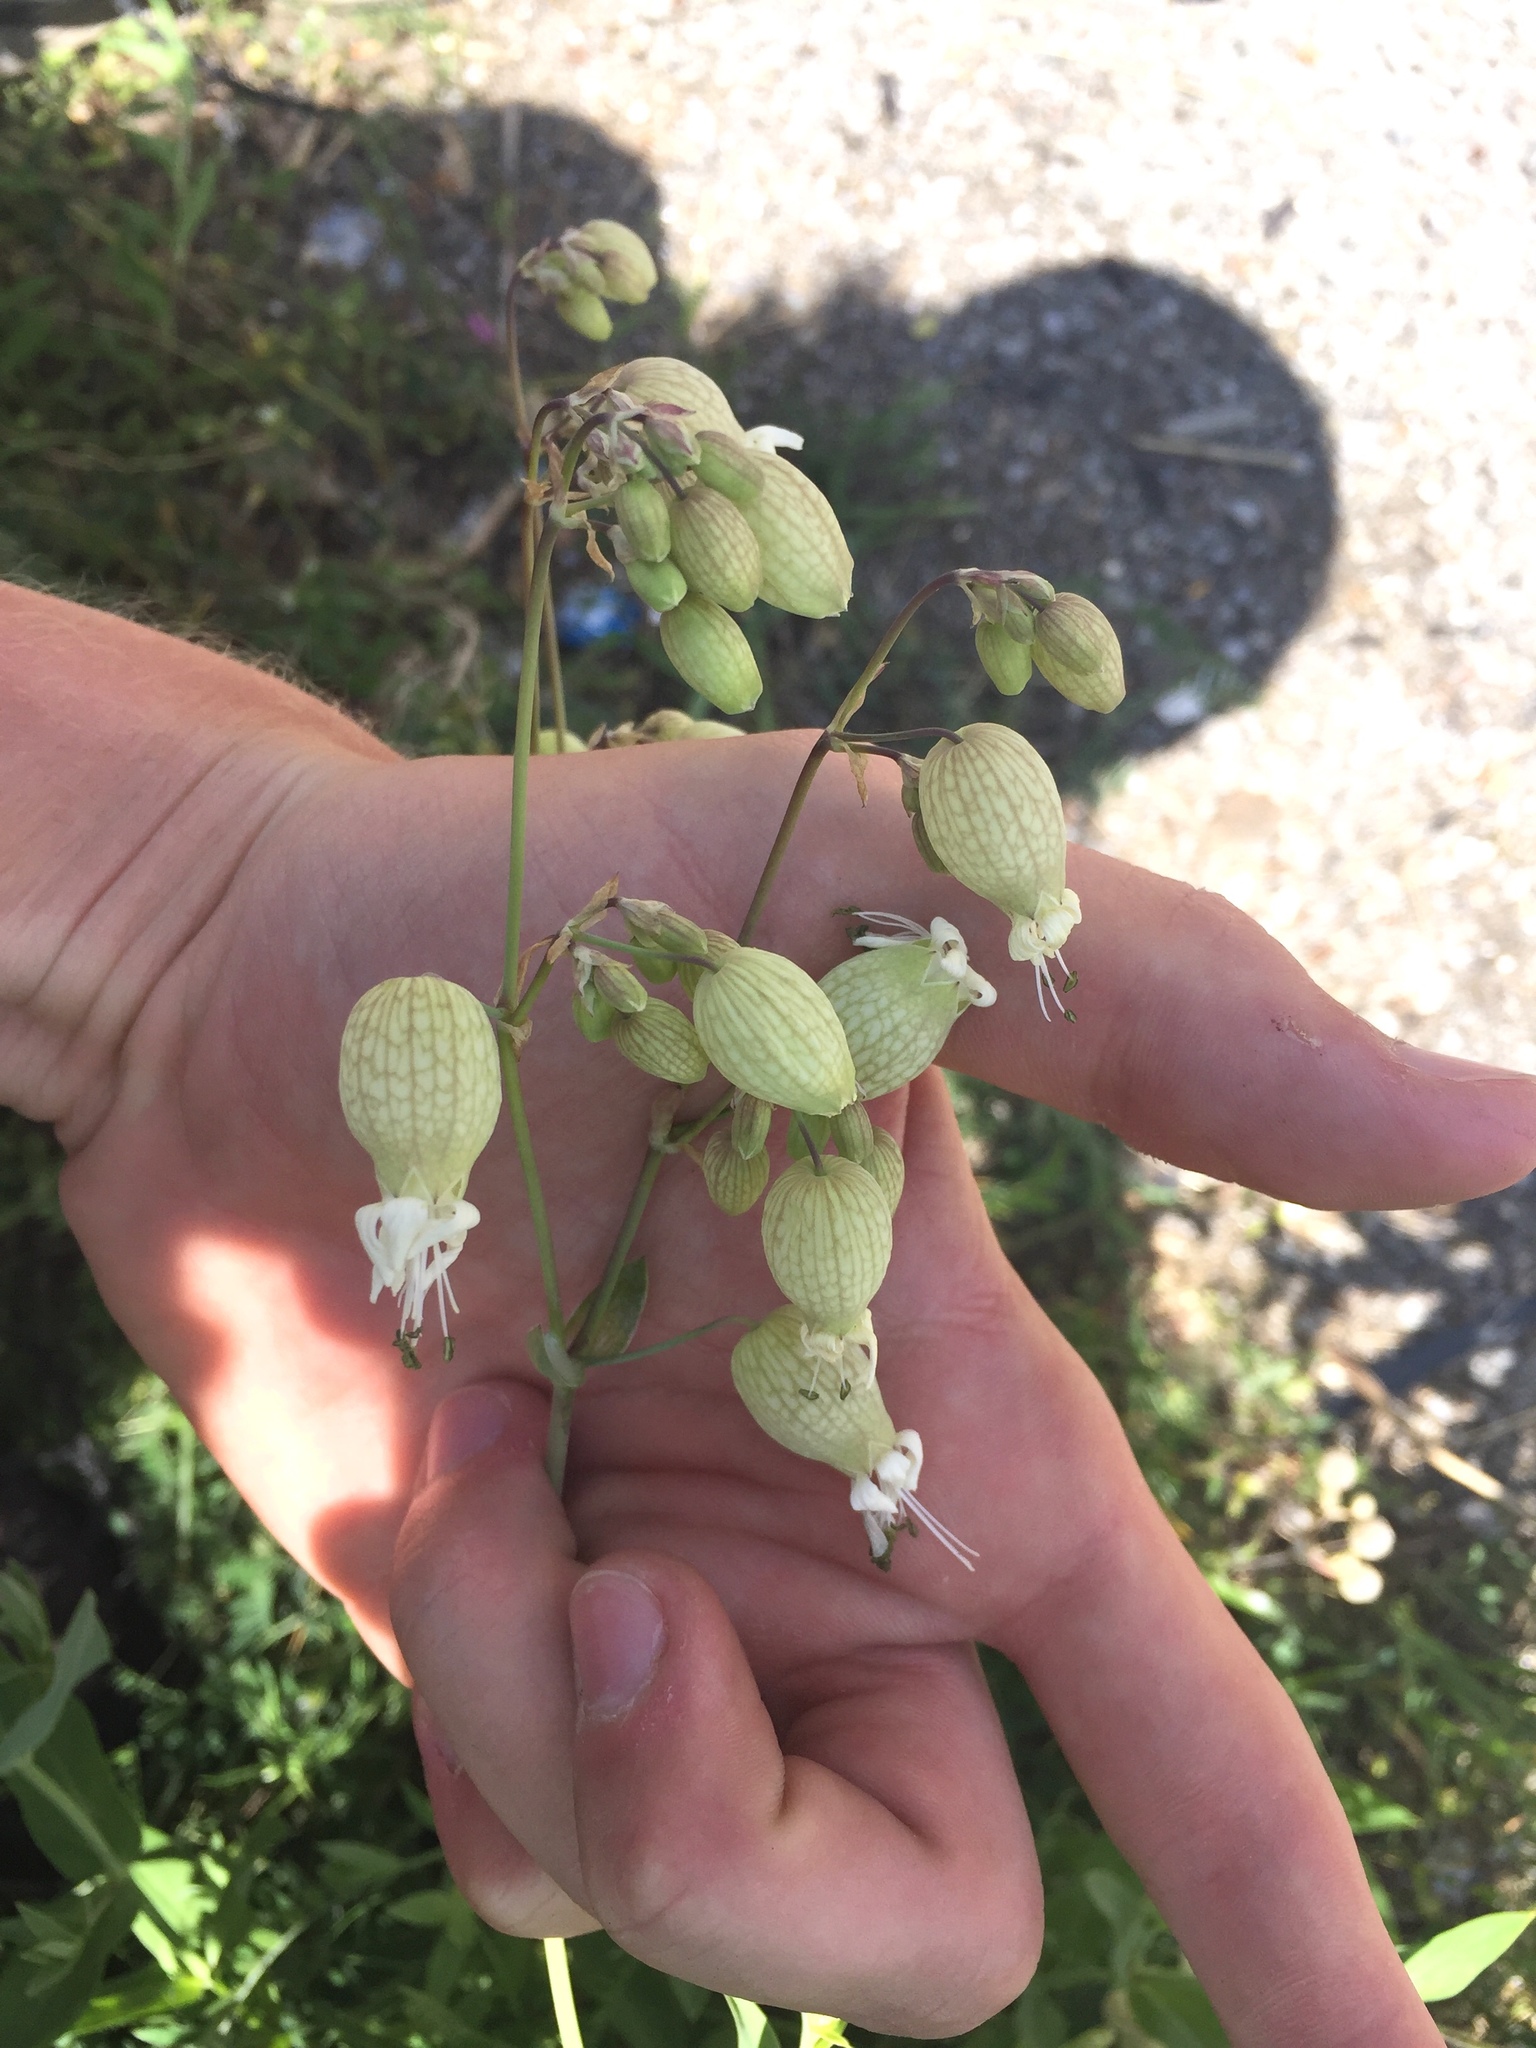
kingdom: Plantae
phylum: Tracheophyta
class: Magnoliopsida
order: Caryophyllales
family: Caryophyllaceae
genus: Silene
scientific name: Silene vulgaris
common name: Bladder campion
